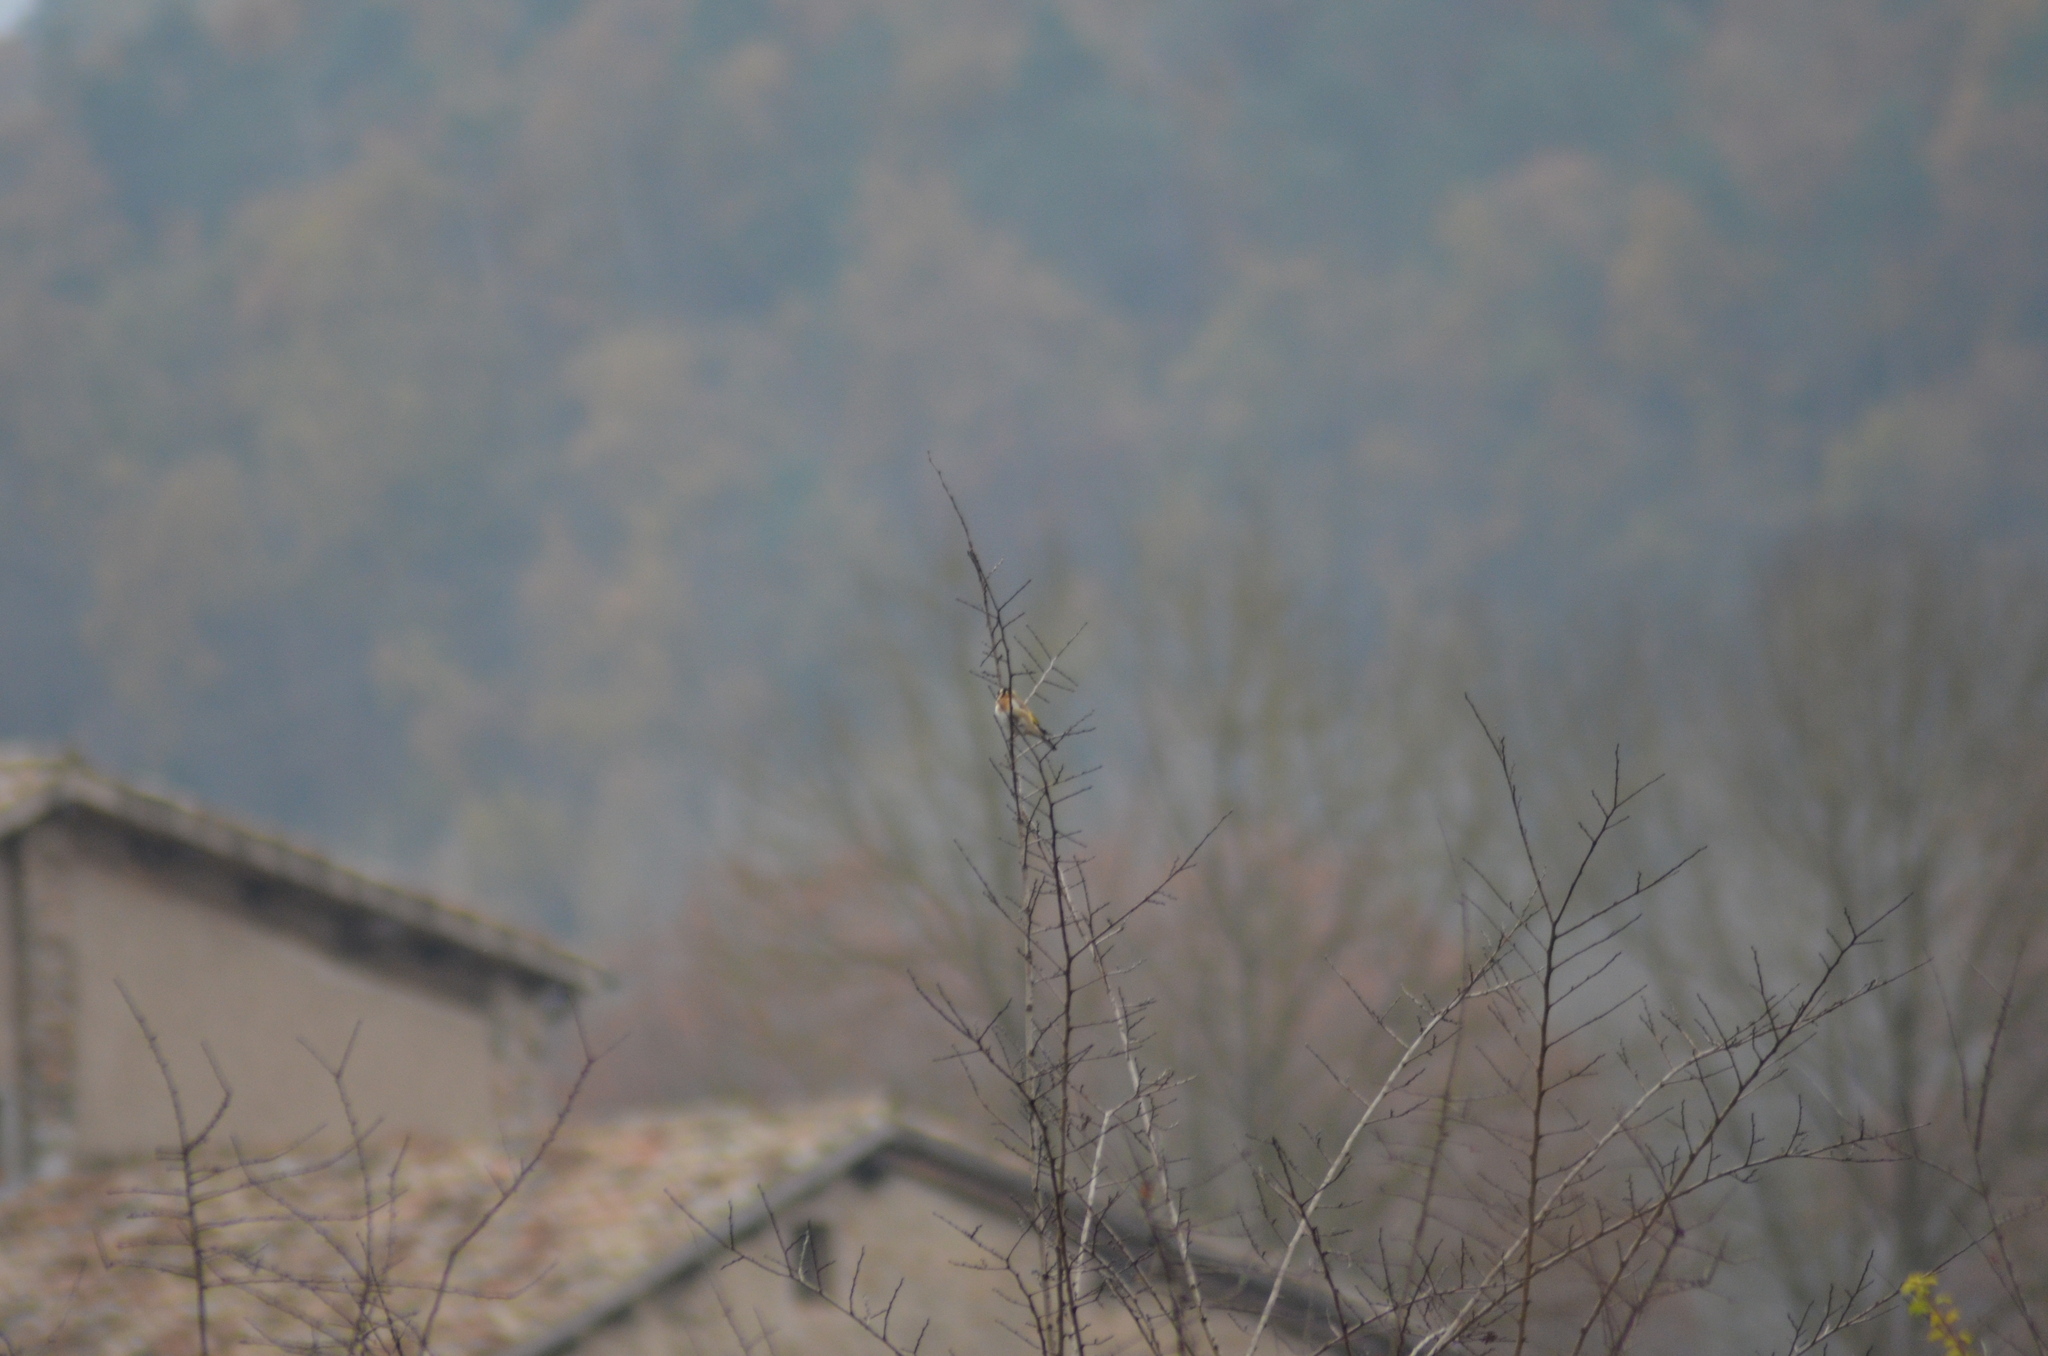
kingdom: Animalia
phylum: Chordata
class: Aves
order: Passeriformes
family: Fringillidae
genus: Carduelis
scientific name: Carduelis carduelis
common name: European goldfinch
